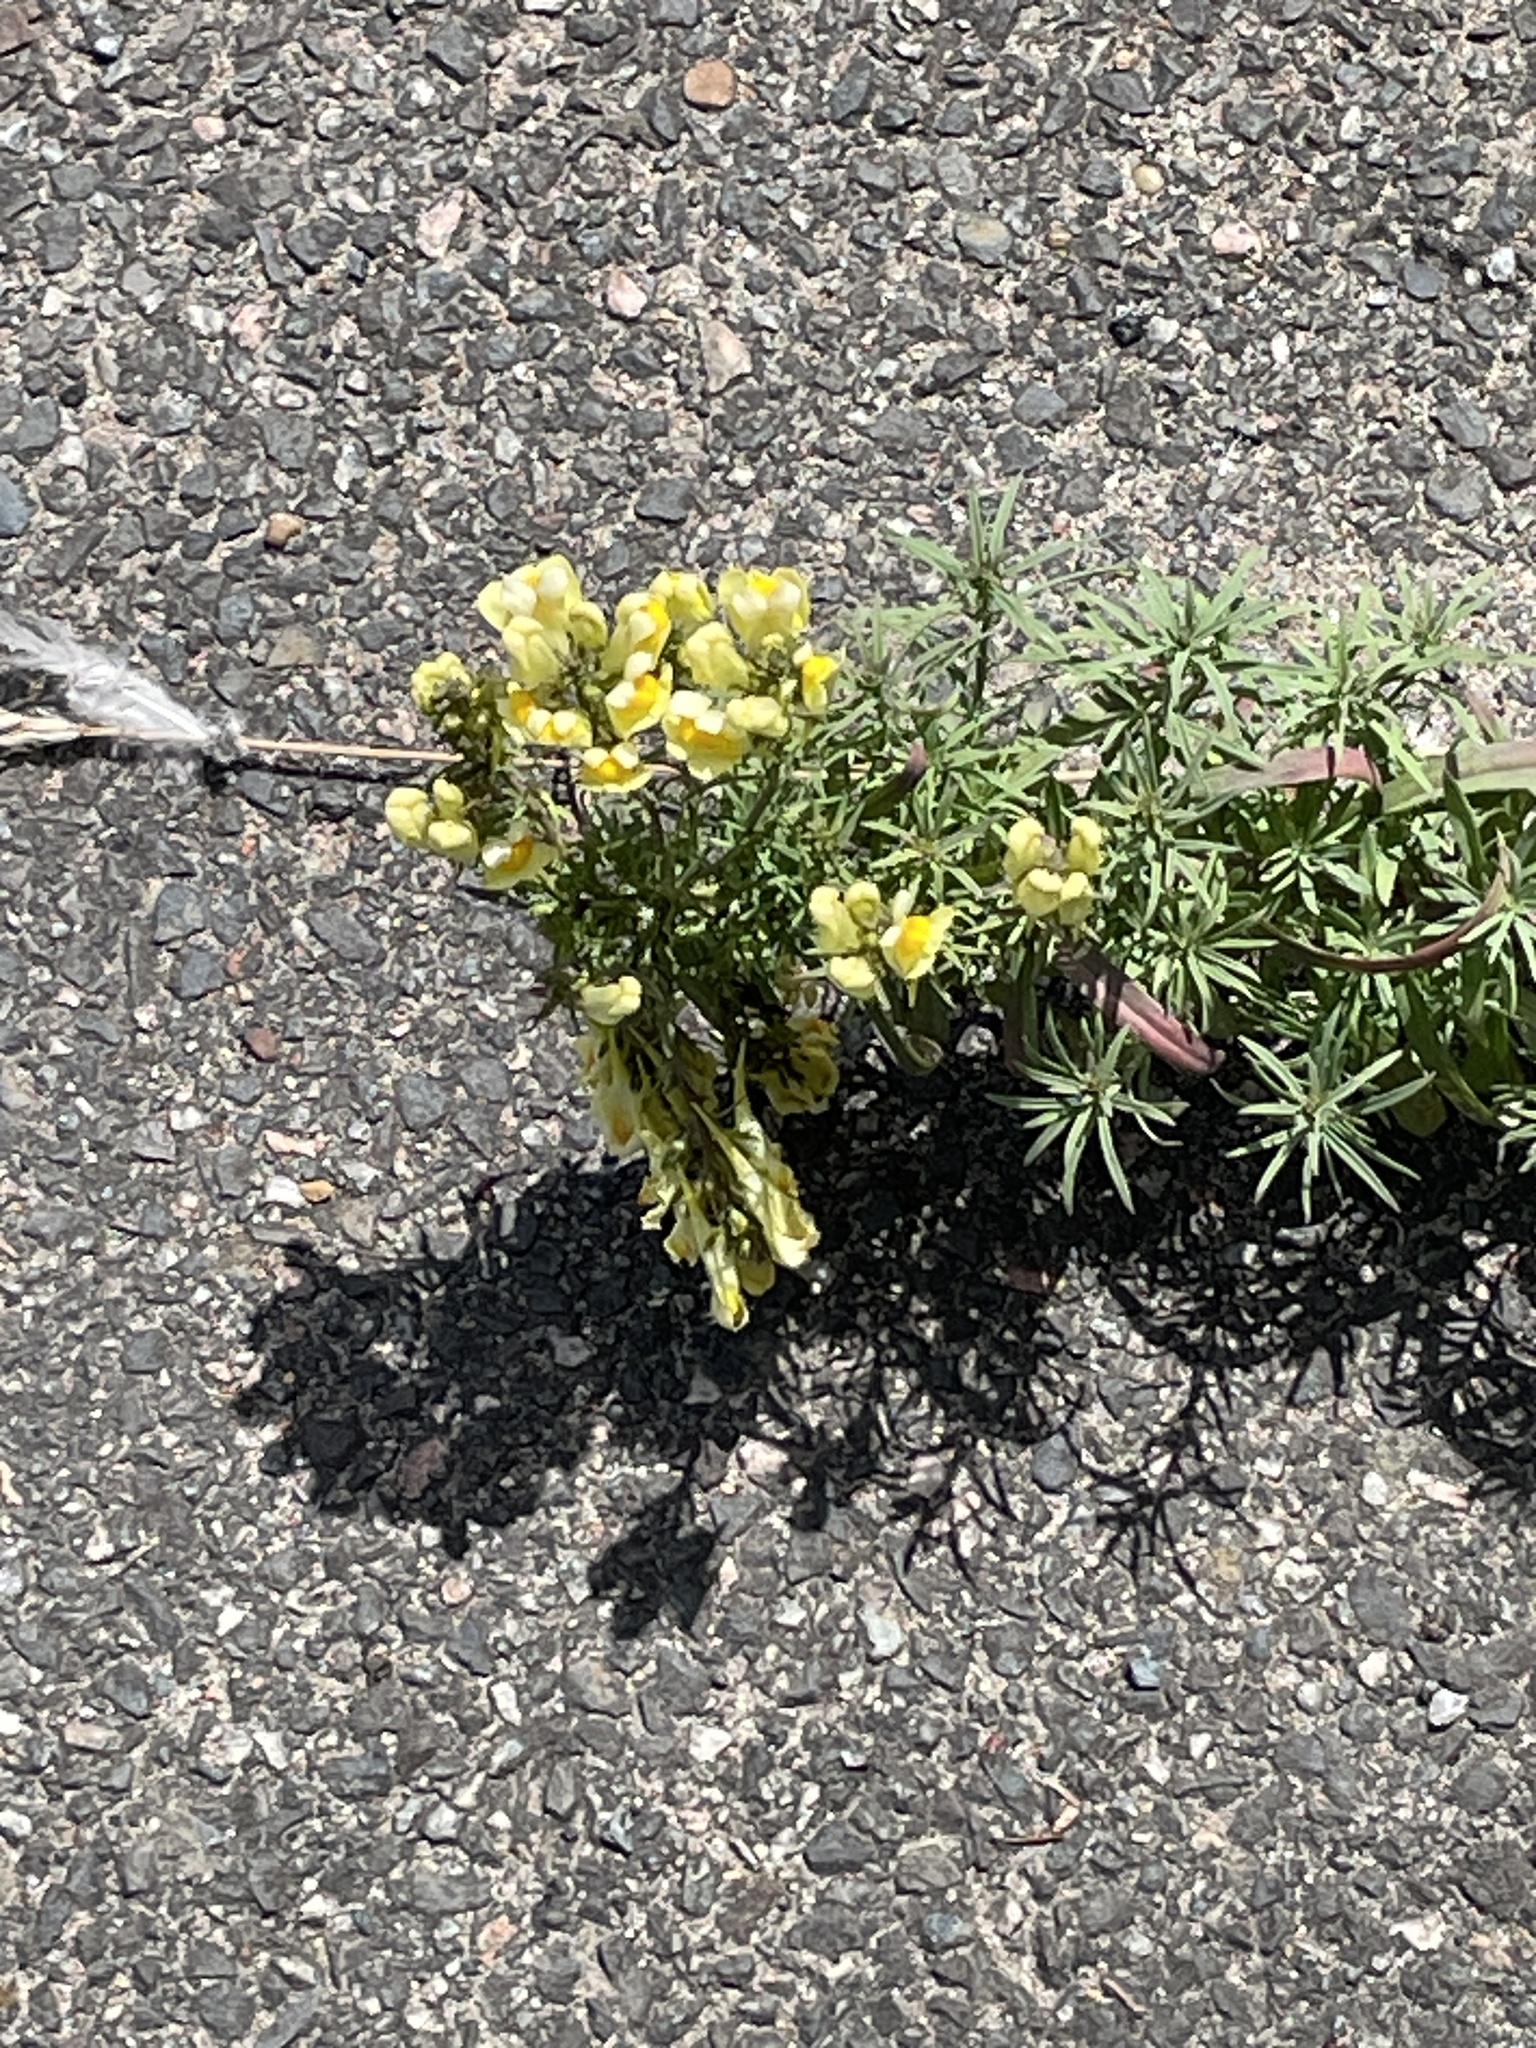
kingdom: Plantae
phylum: Tracheophyta
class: Magnoliopsida
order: Lamiales
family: Plantaginaceae
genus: Linaria
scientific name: Linaria vulgaris
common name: Butter and eggs
